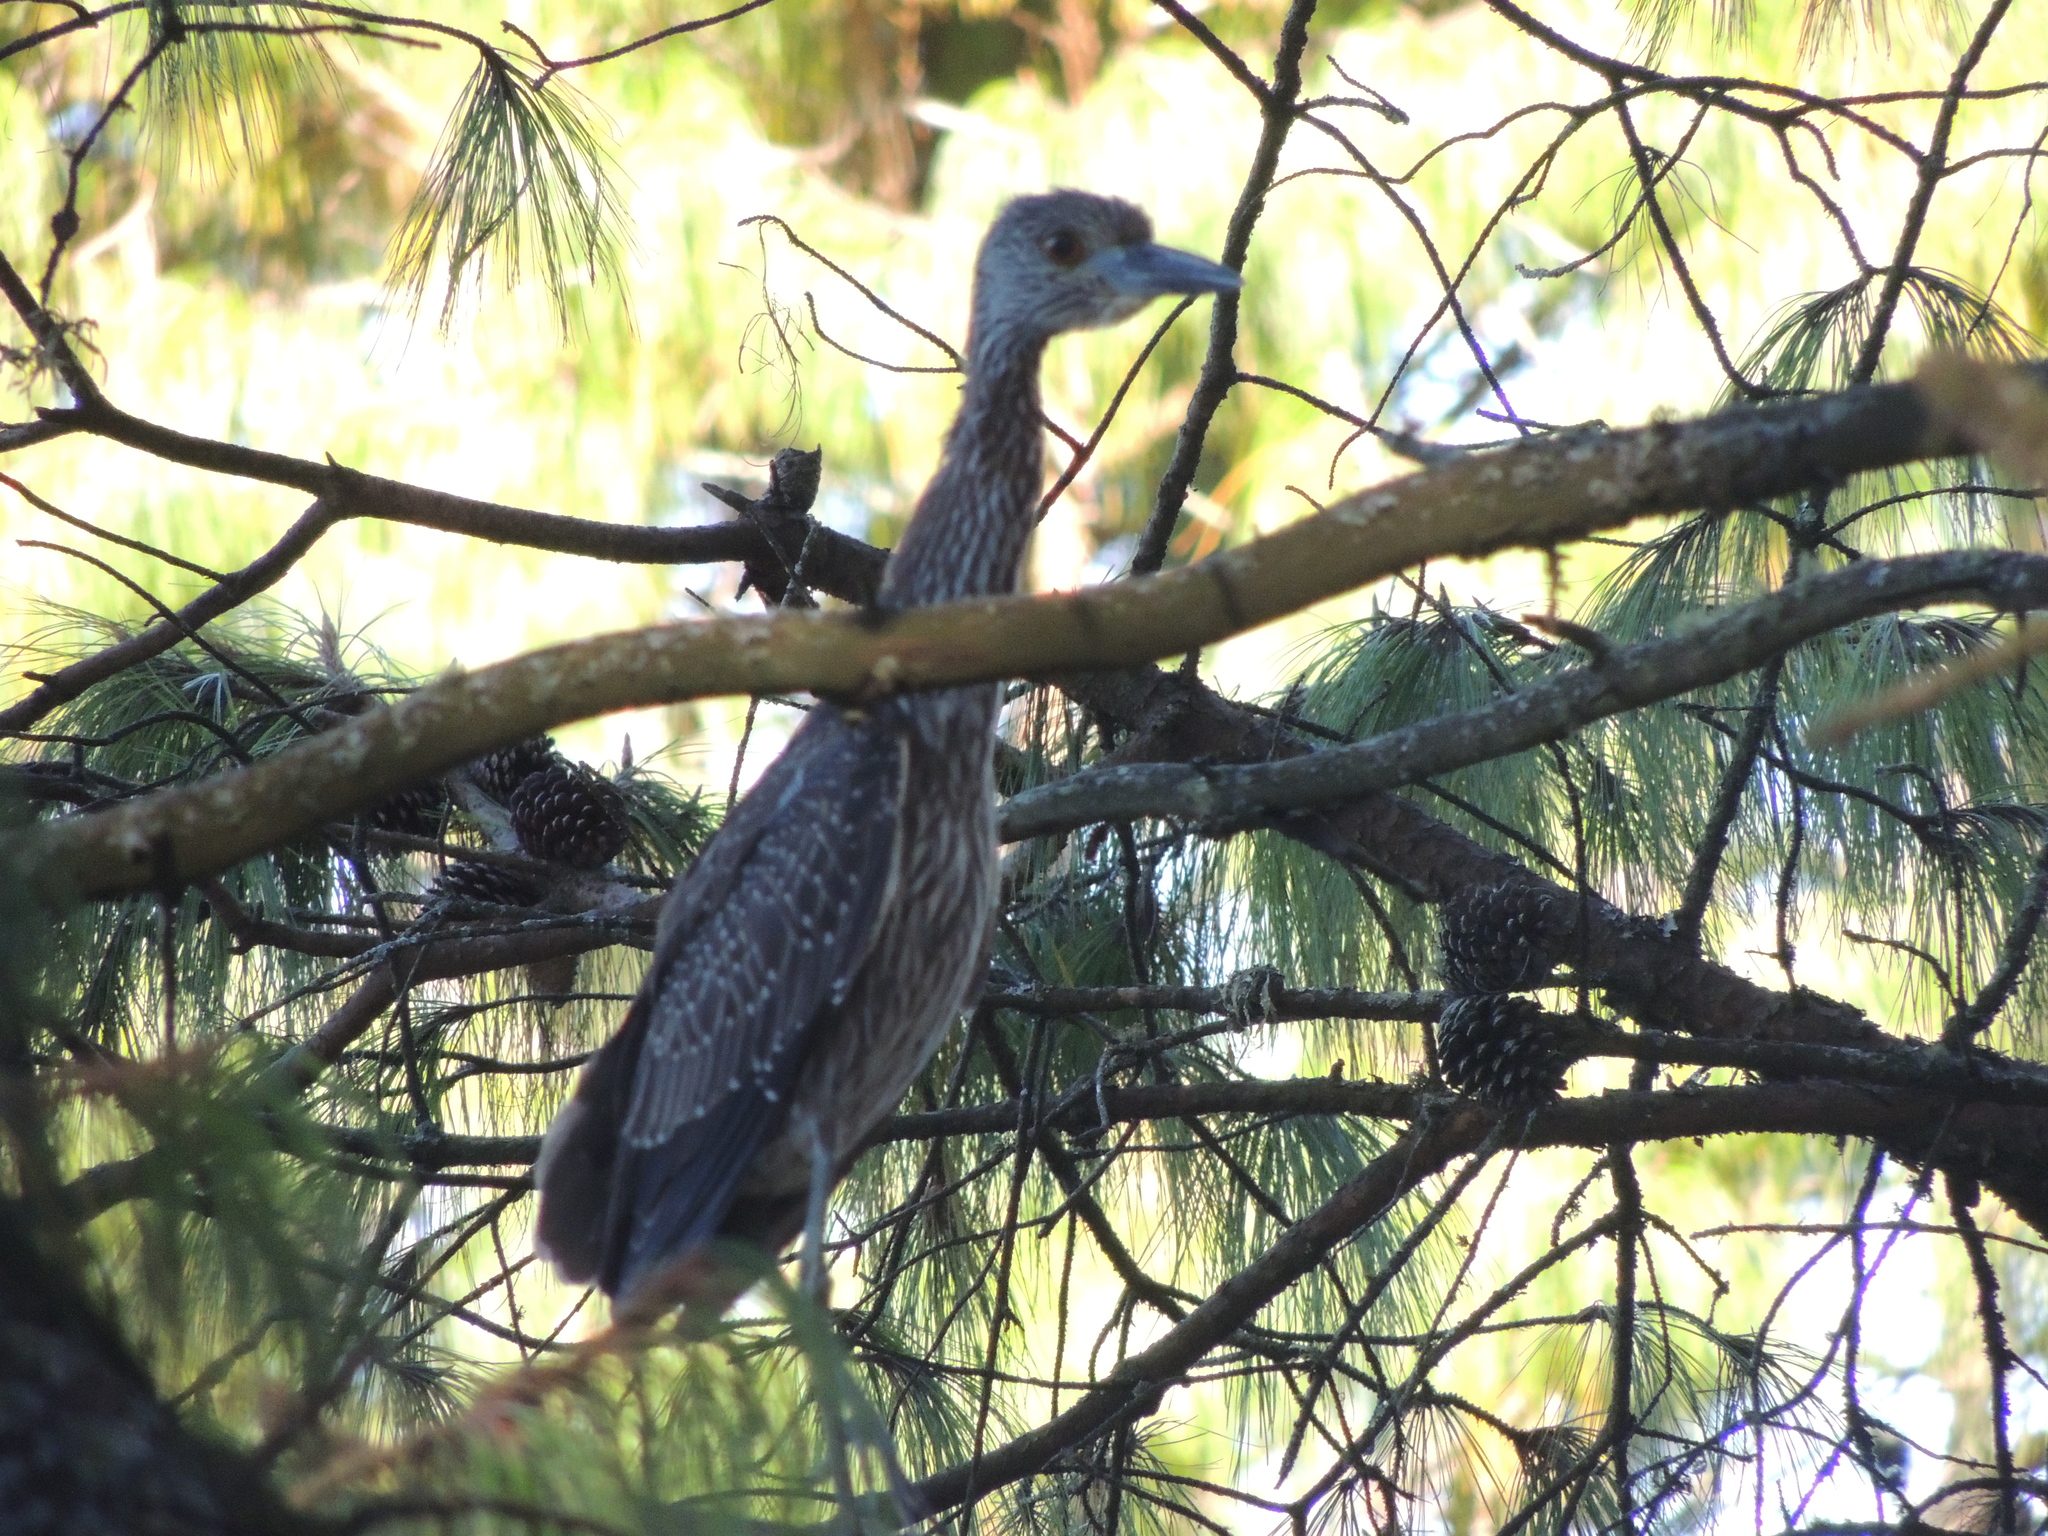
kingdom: Animalia
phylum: Chordata
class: Aves
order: Pelecaniformes
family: Ardeidae
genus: Nyctanassa
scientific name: Nyctanassa violacea
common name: Yellow-crowned night heron
